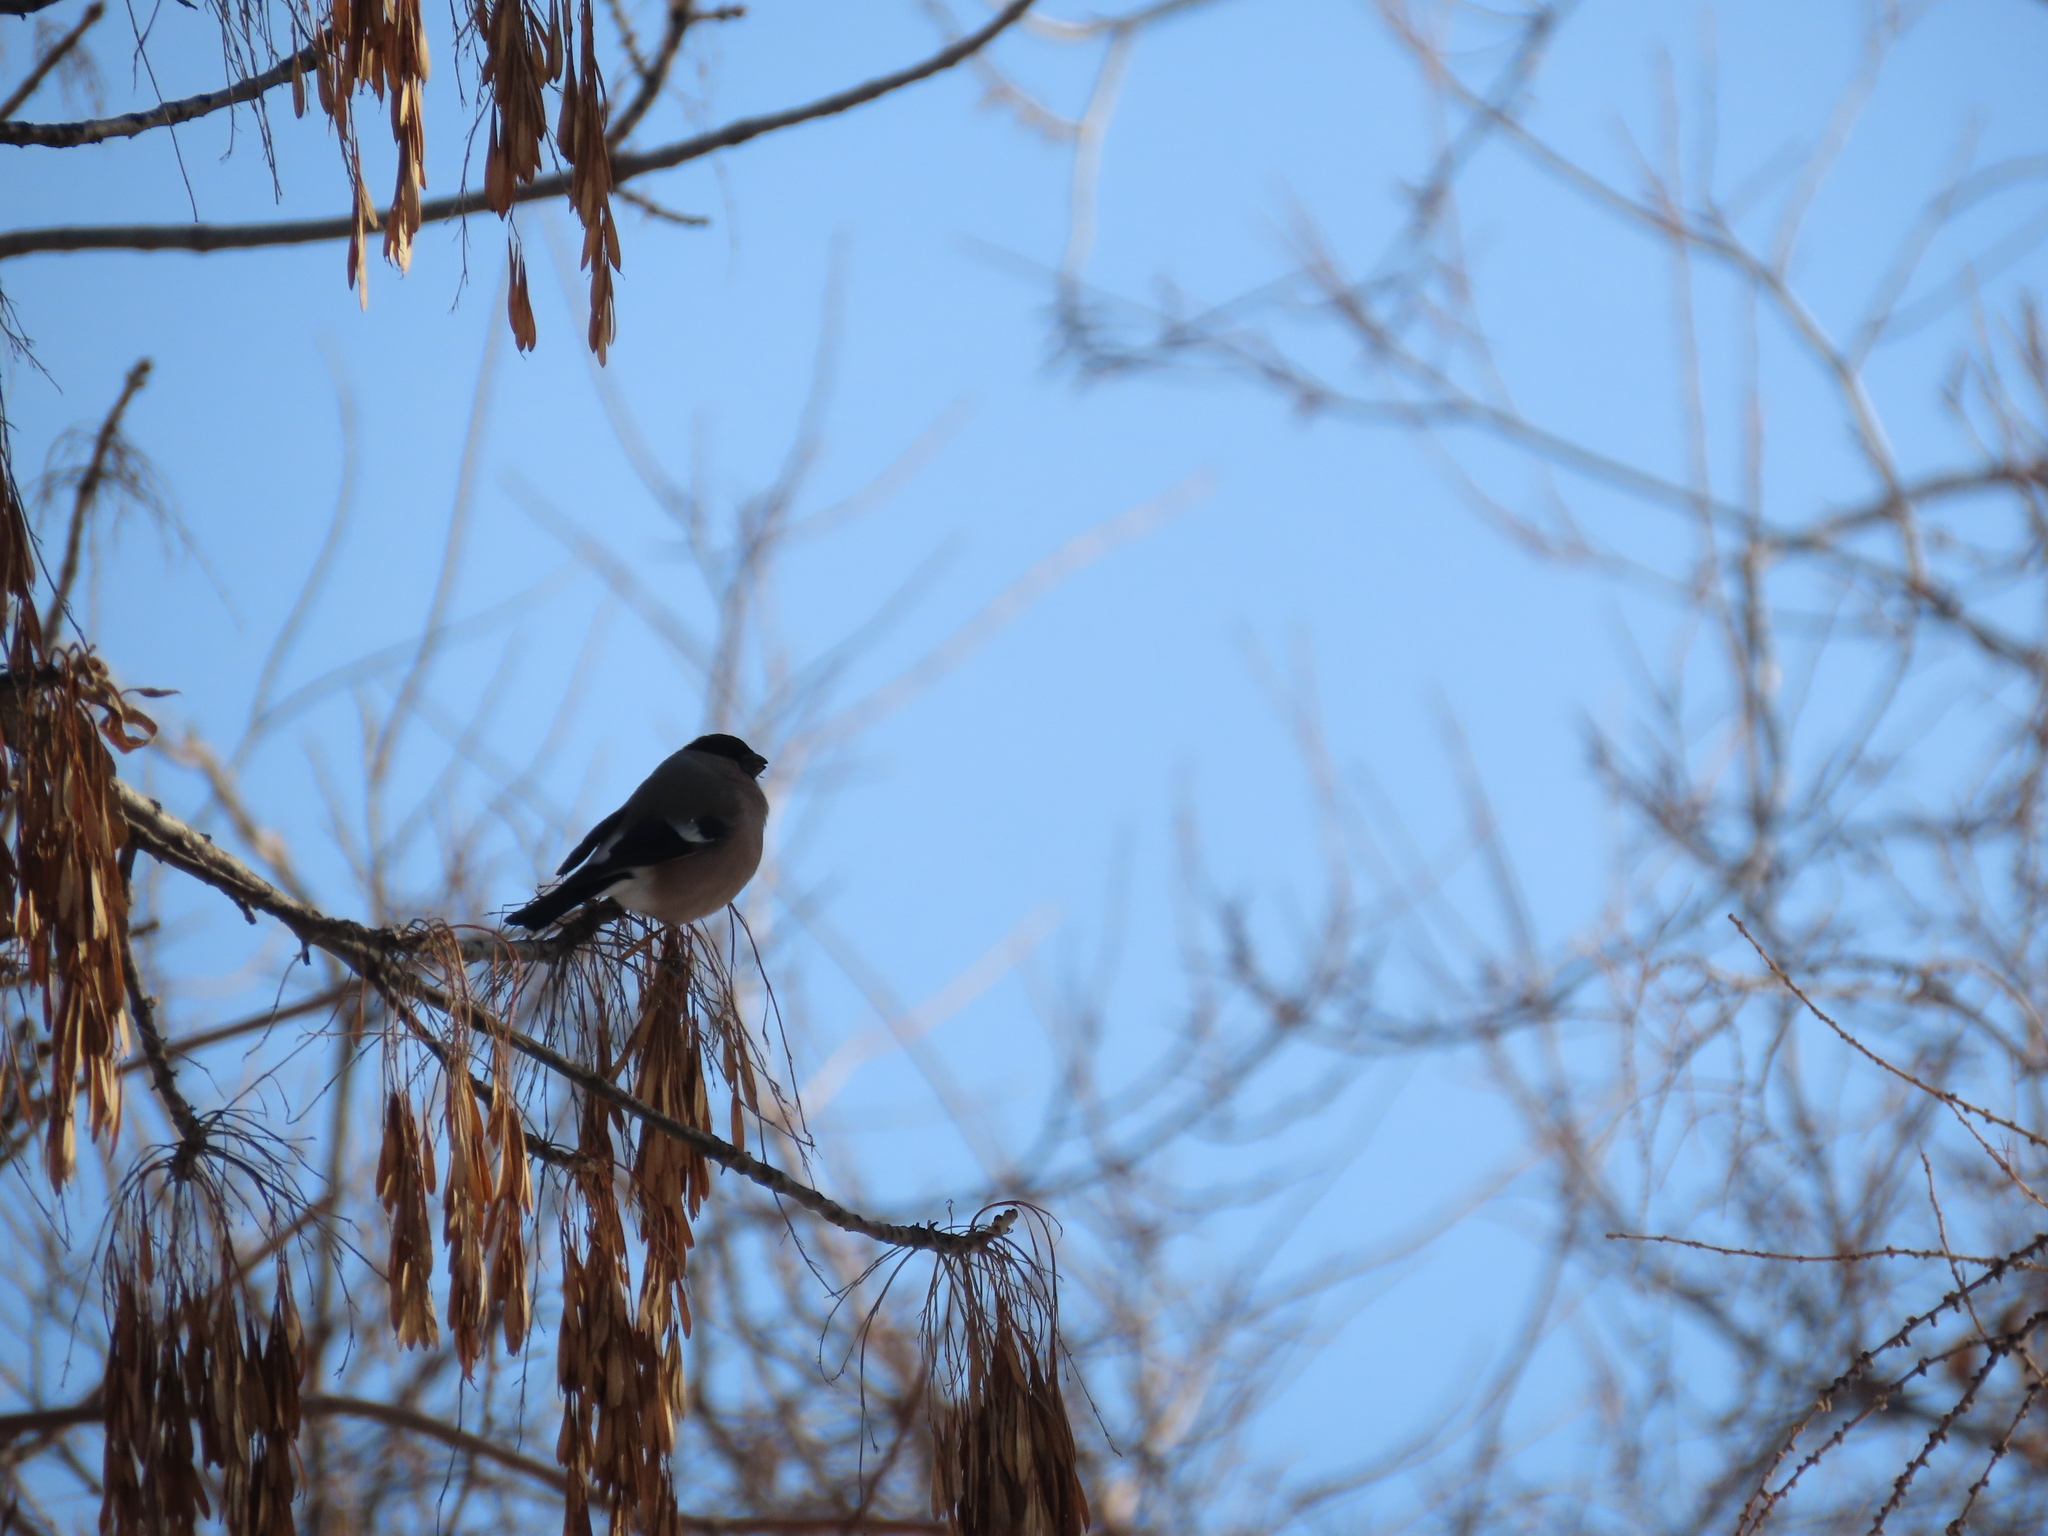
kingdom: Animalia
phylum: Chordata
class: Aves
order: Passeriformes
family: Fringillidae
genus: Pyrrhula
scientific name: Pyrrhula pyrrhula
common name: Eurasian bullfinch
